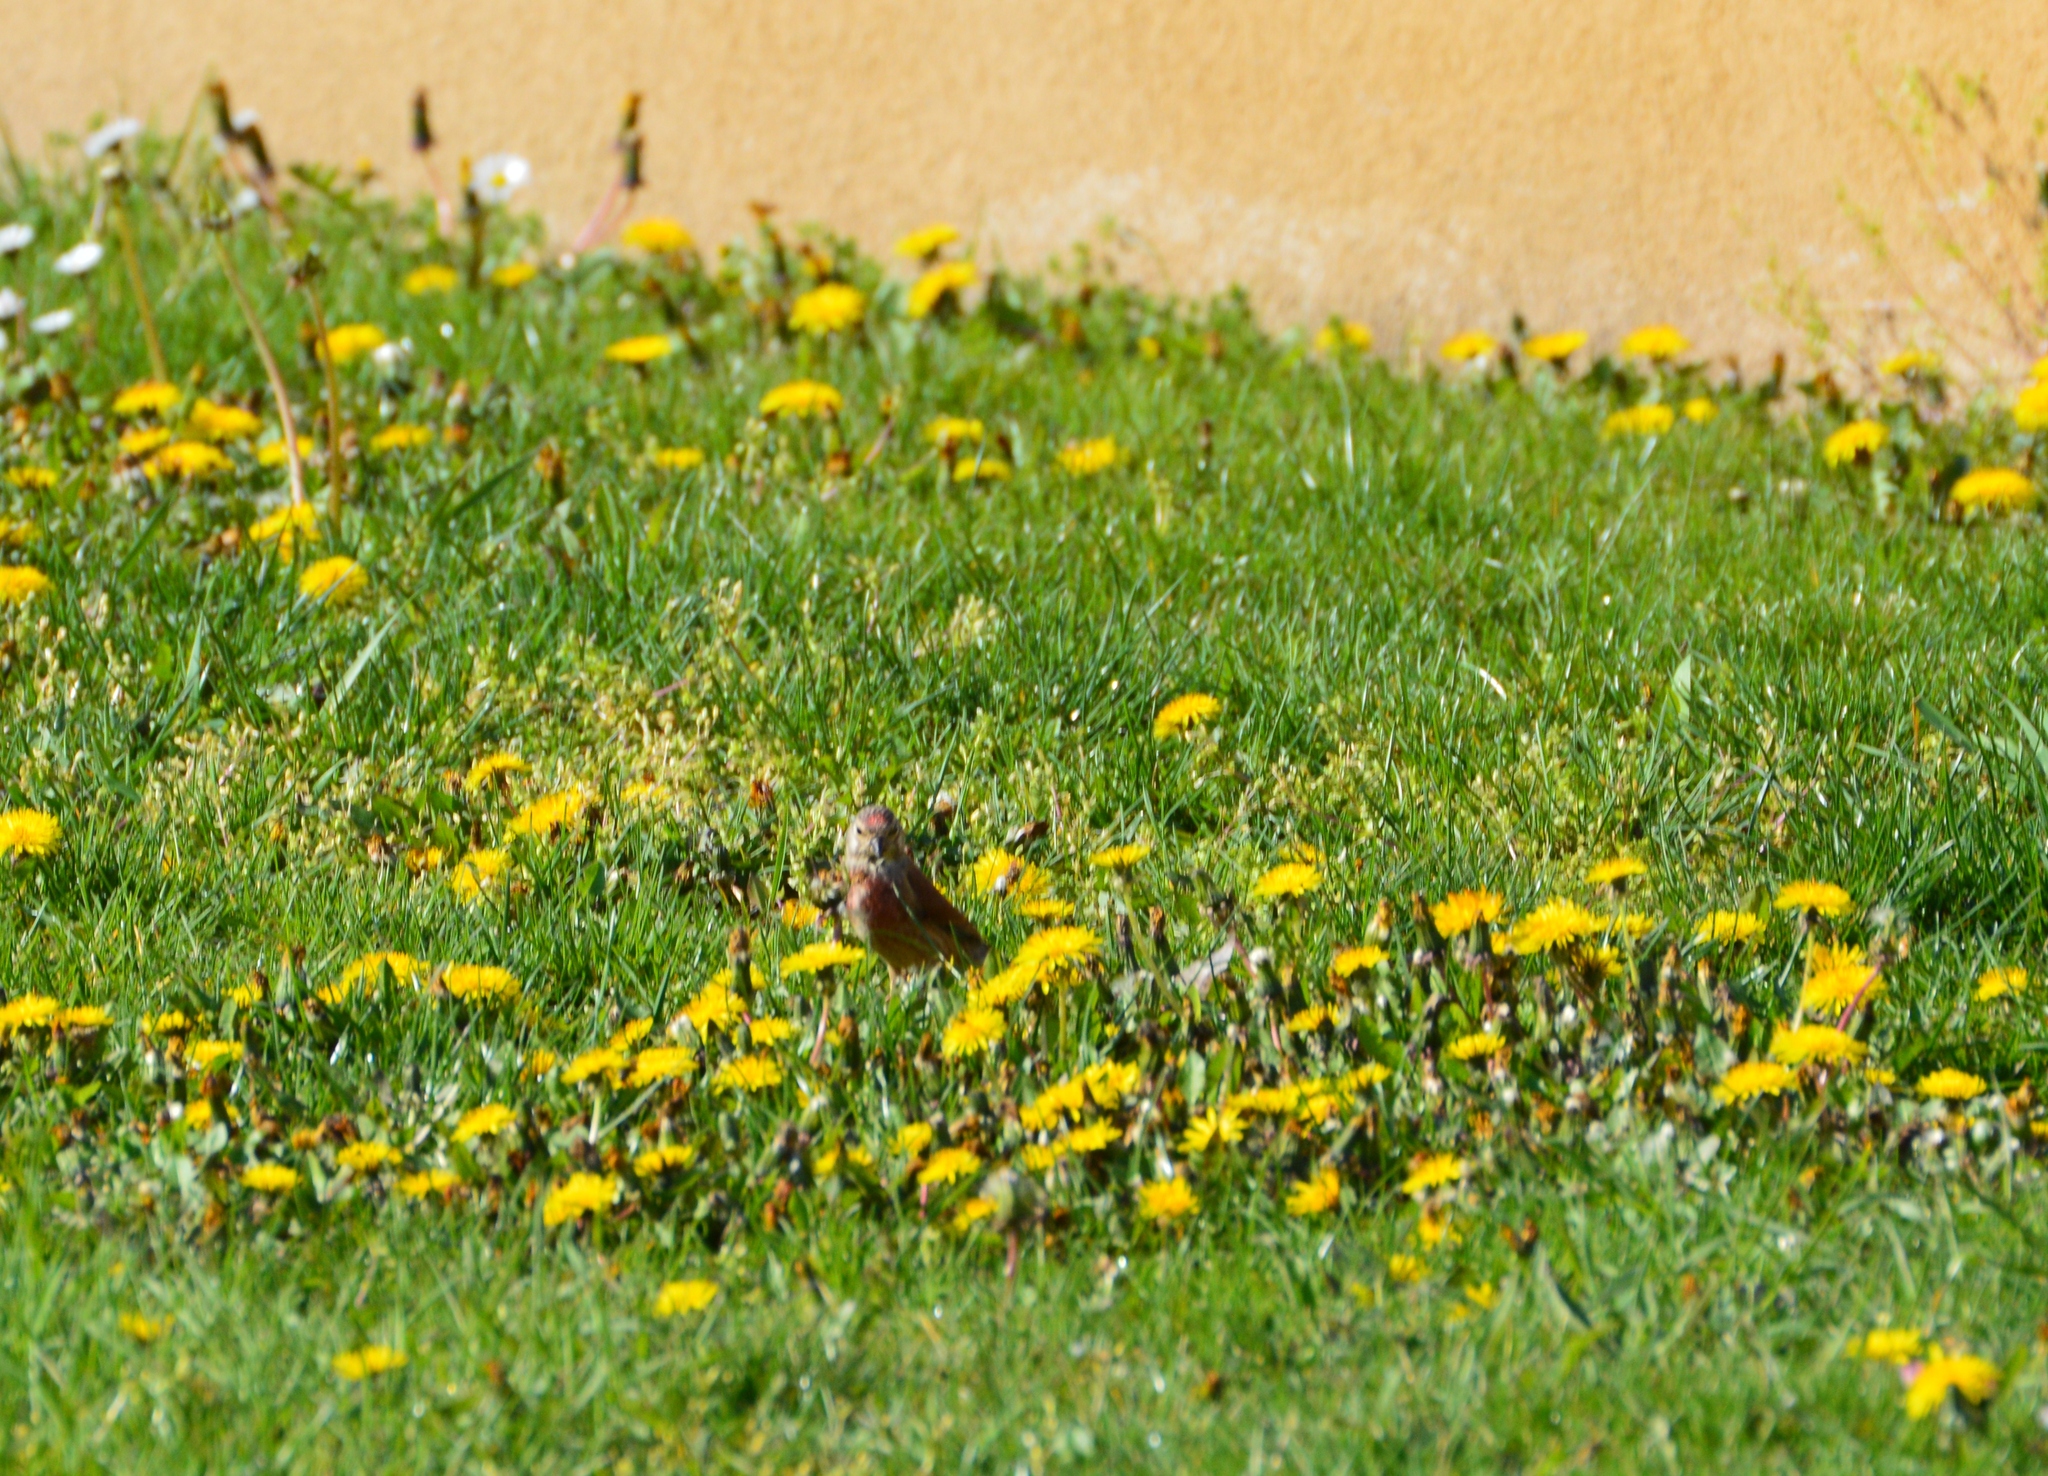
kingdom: Animalia
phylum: Chordata
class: Aves
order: Passeriformes
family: Fringillidae
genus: Linaria
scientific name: Linaria cannabina
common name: Common linnet
